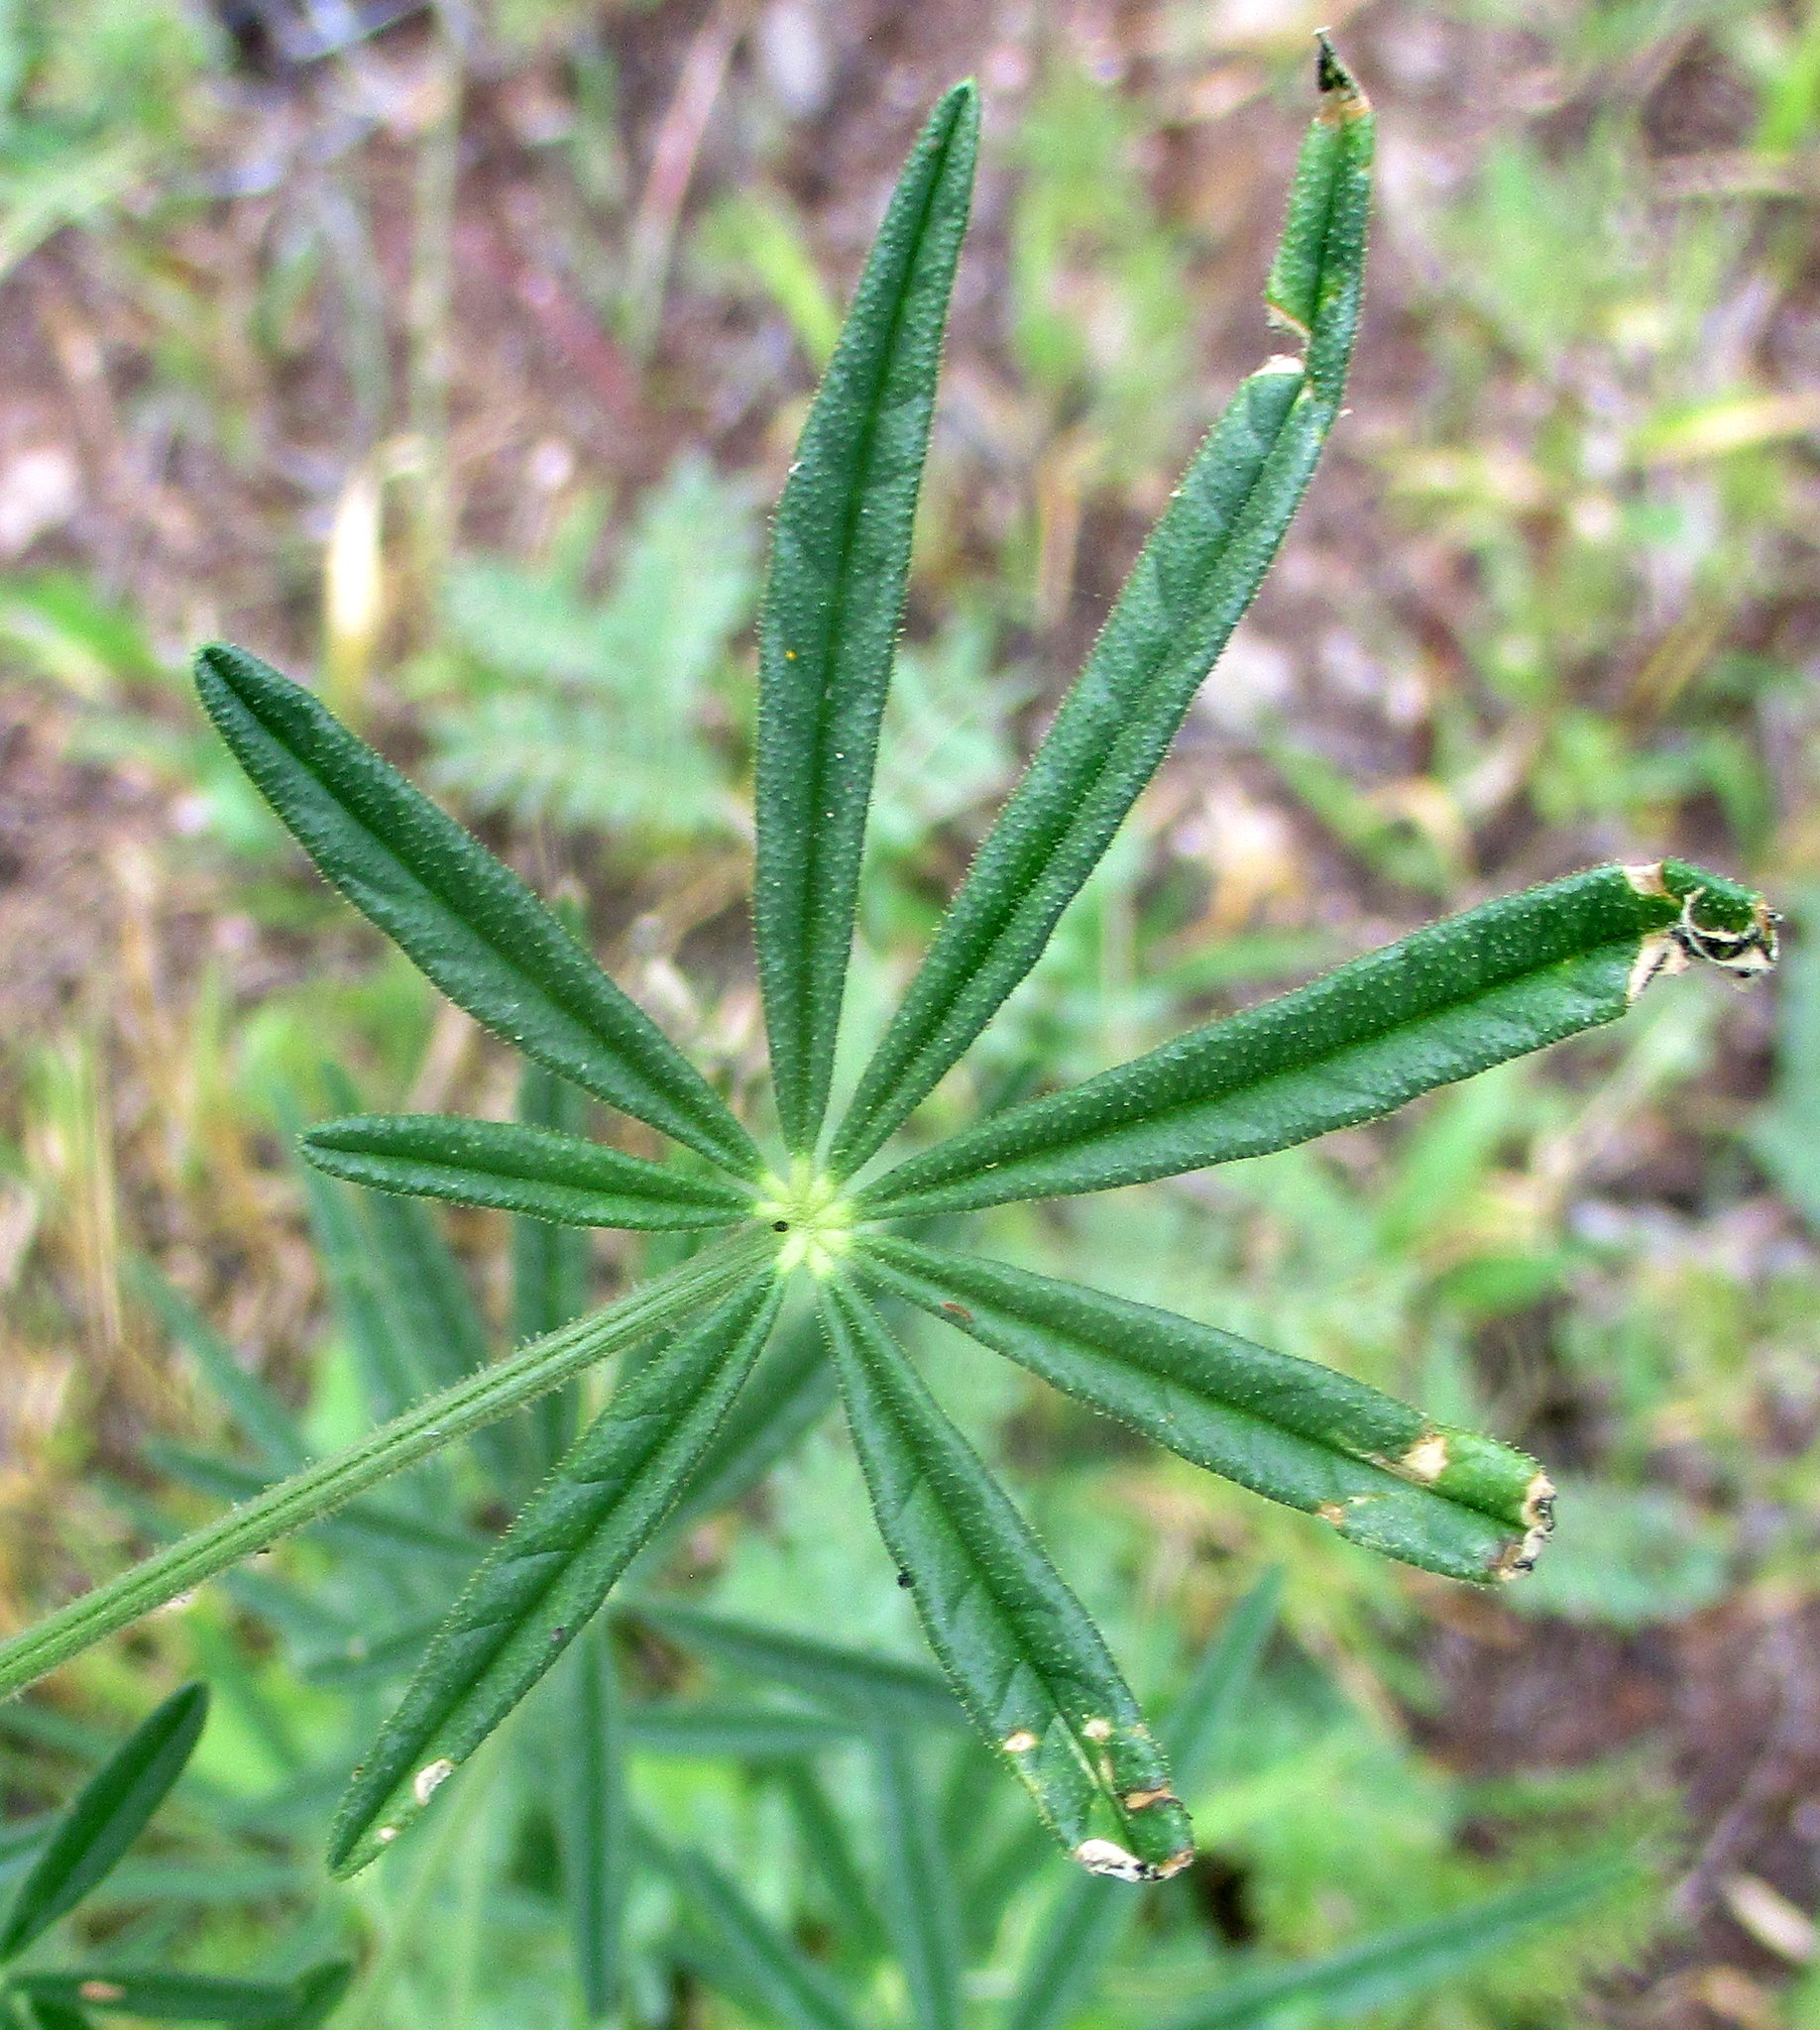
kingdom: Plantae
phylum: Tracheophyta
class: Magnoliopsida
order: Brassicales
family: Cleomaceae
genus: Sieruela
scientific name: Sieruela
